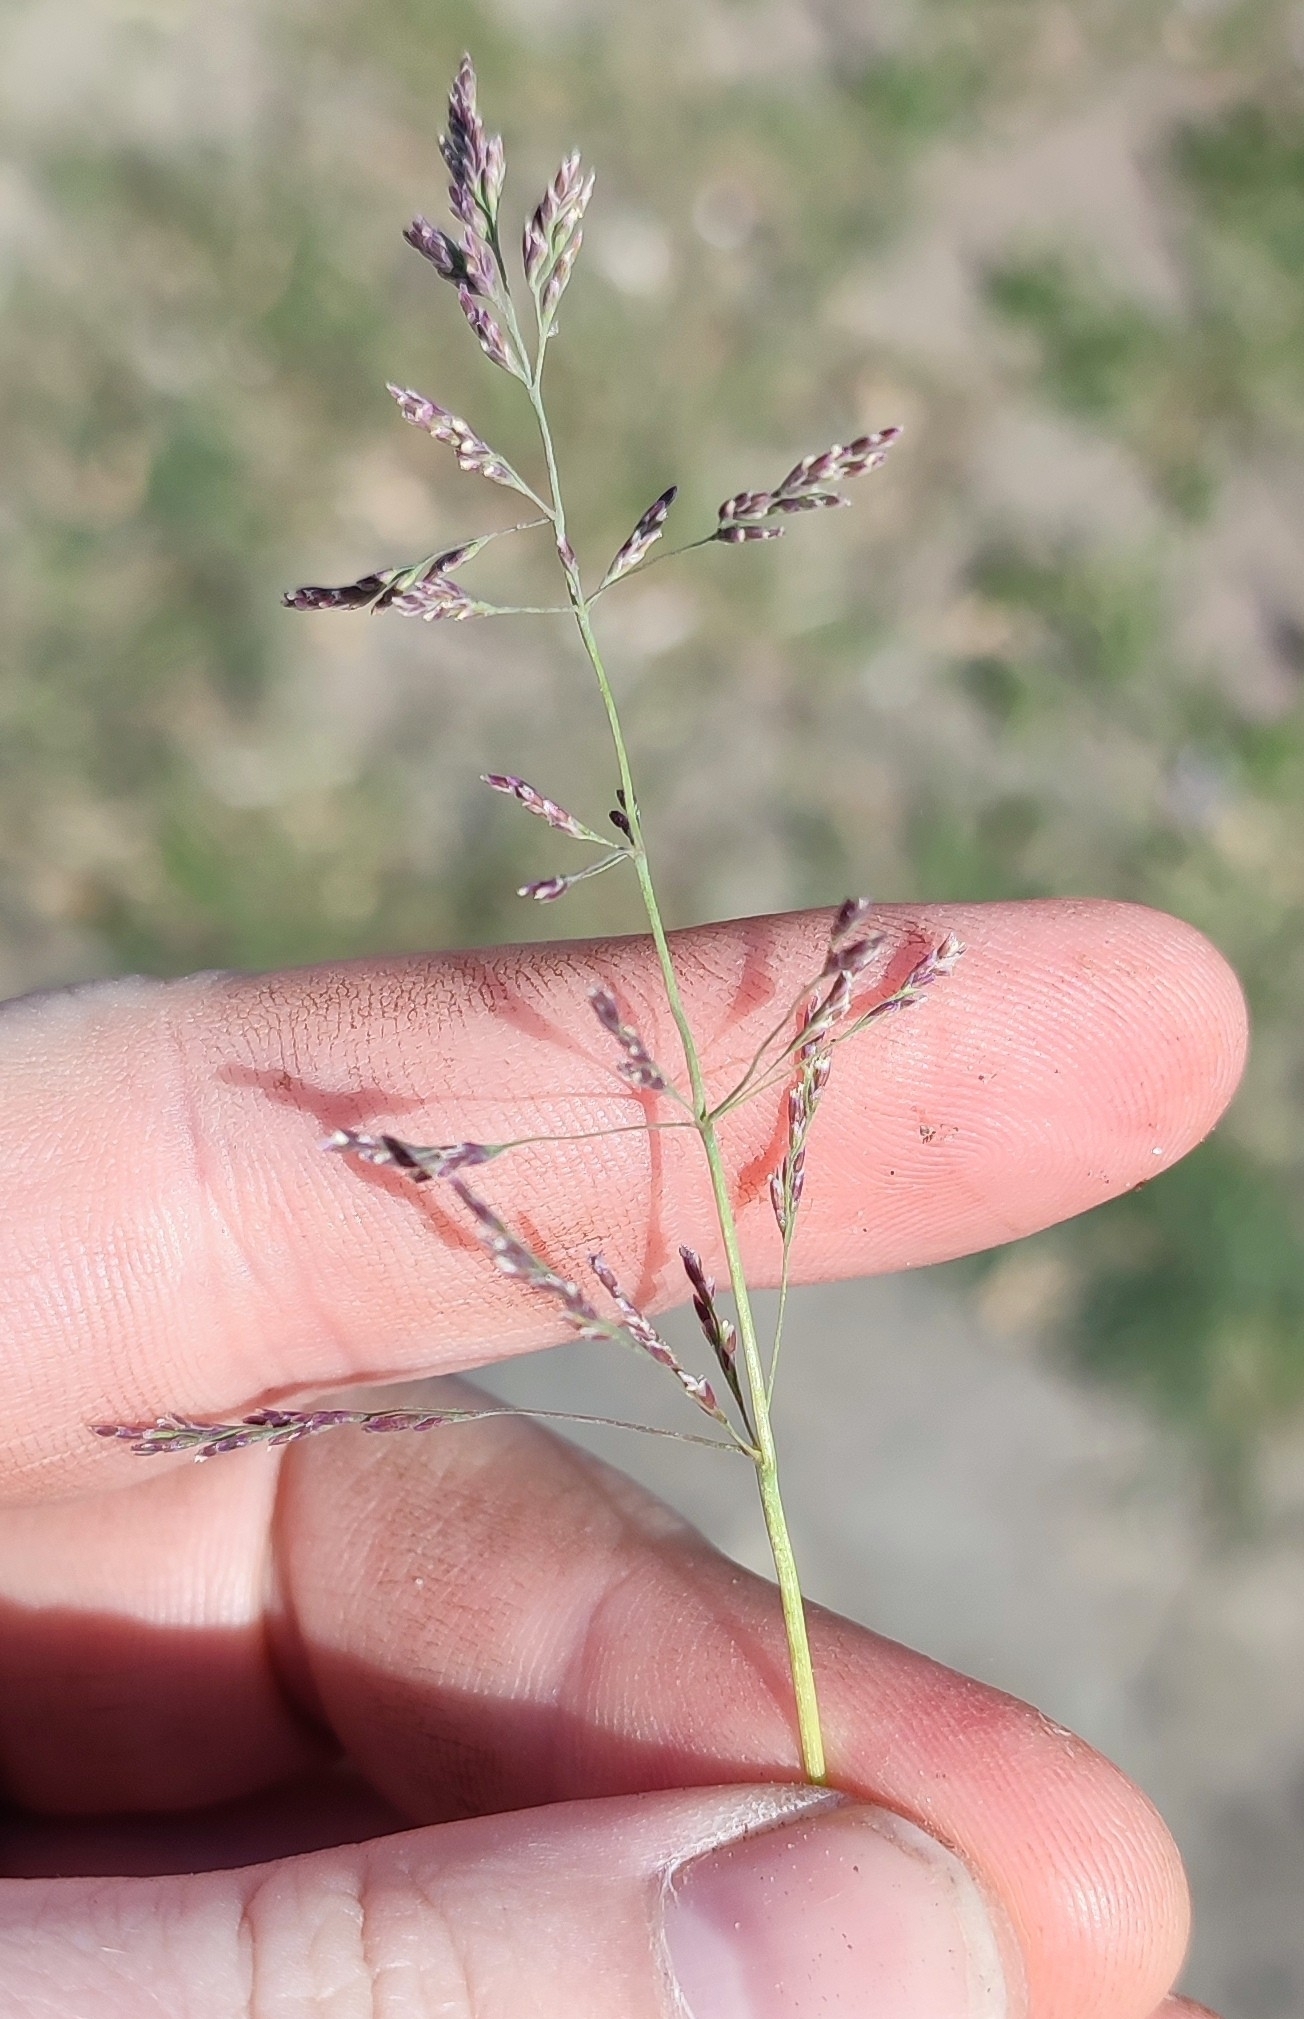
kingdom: Plantae
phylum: Tracheophyta
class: Liliopsida
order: Poales
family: Poaceae
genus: Puccinellia
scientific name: Puccinellia distans
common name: Weeping alkaligrass
